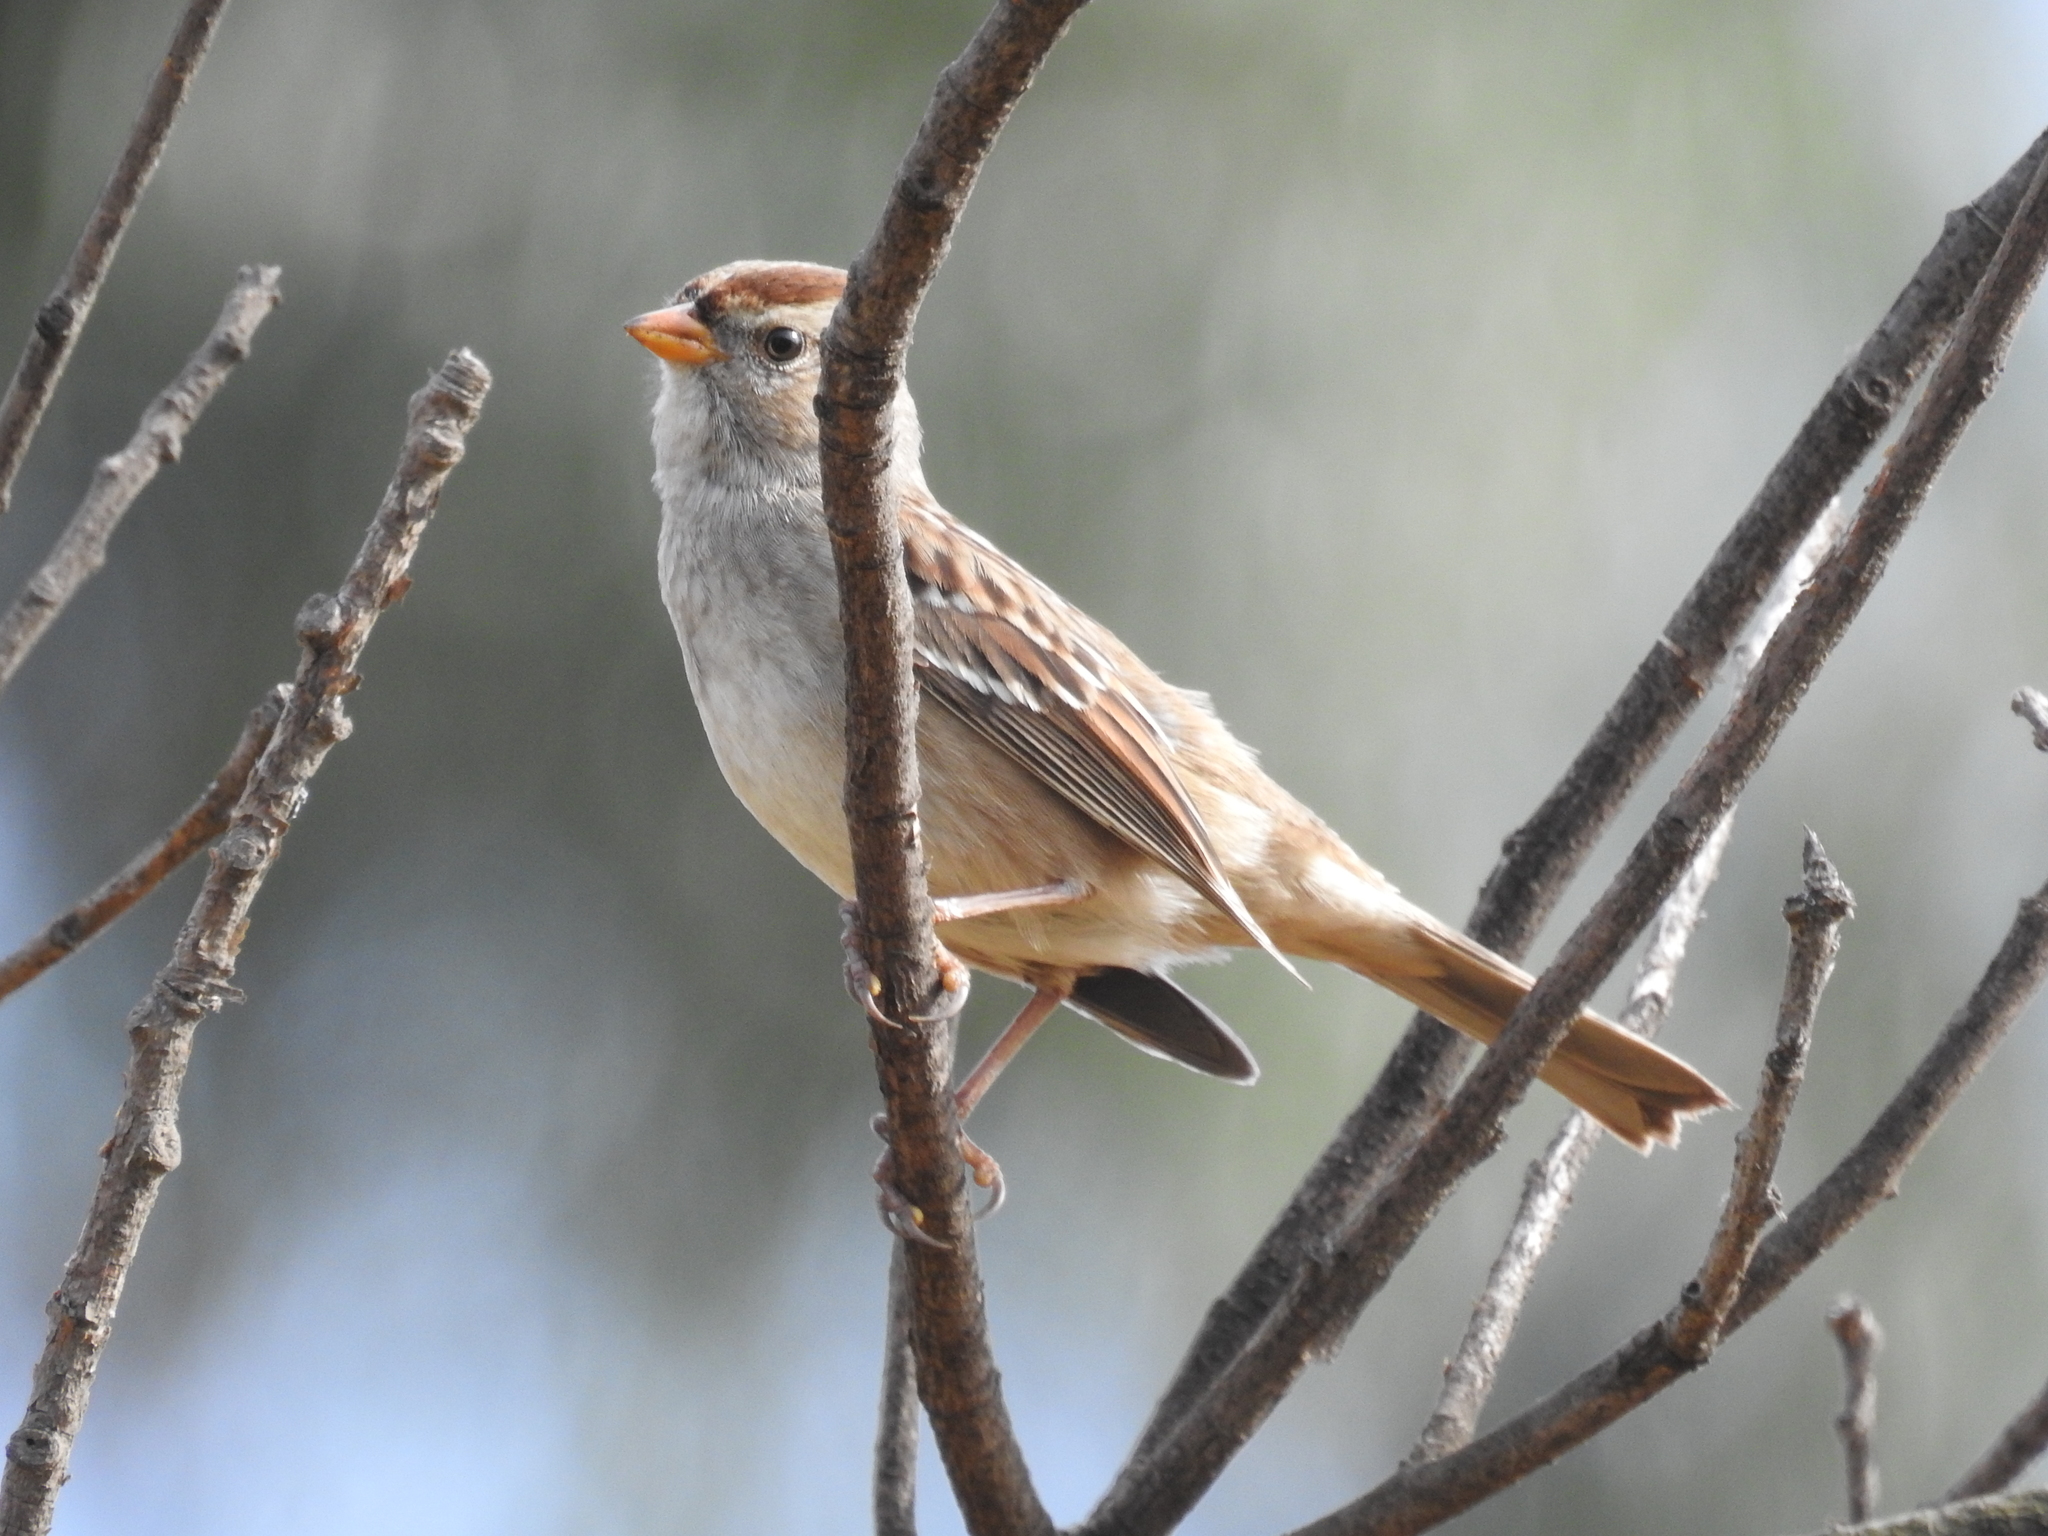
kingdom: Animalia
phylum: Chordata
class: Aves
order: Passeriformes
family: Passerellidae
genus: Zonotrichia
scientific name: Zonotrichia leucophrys
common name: White-crowned sparrow
